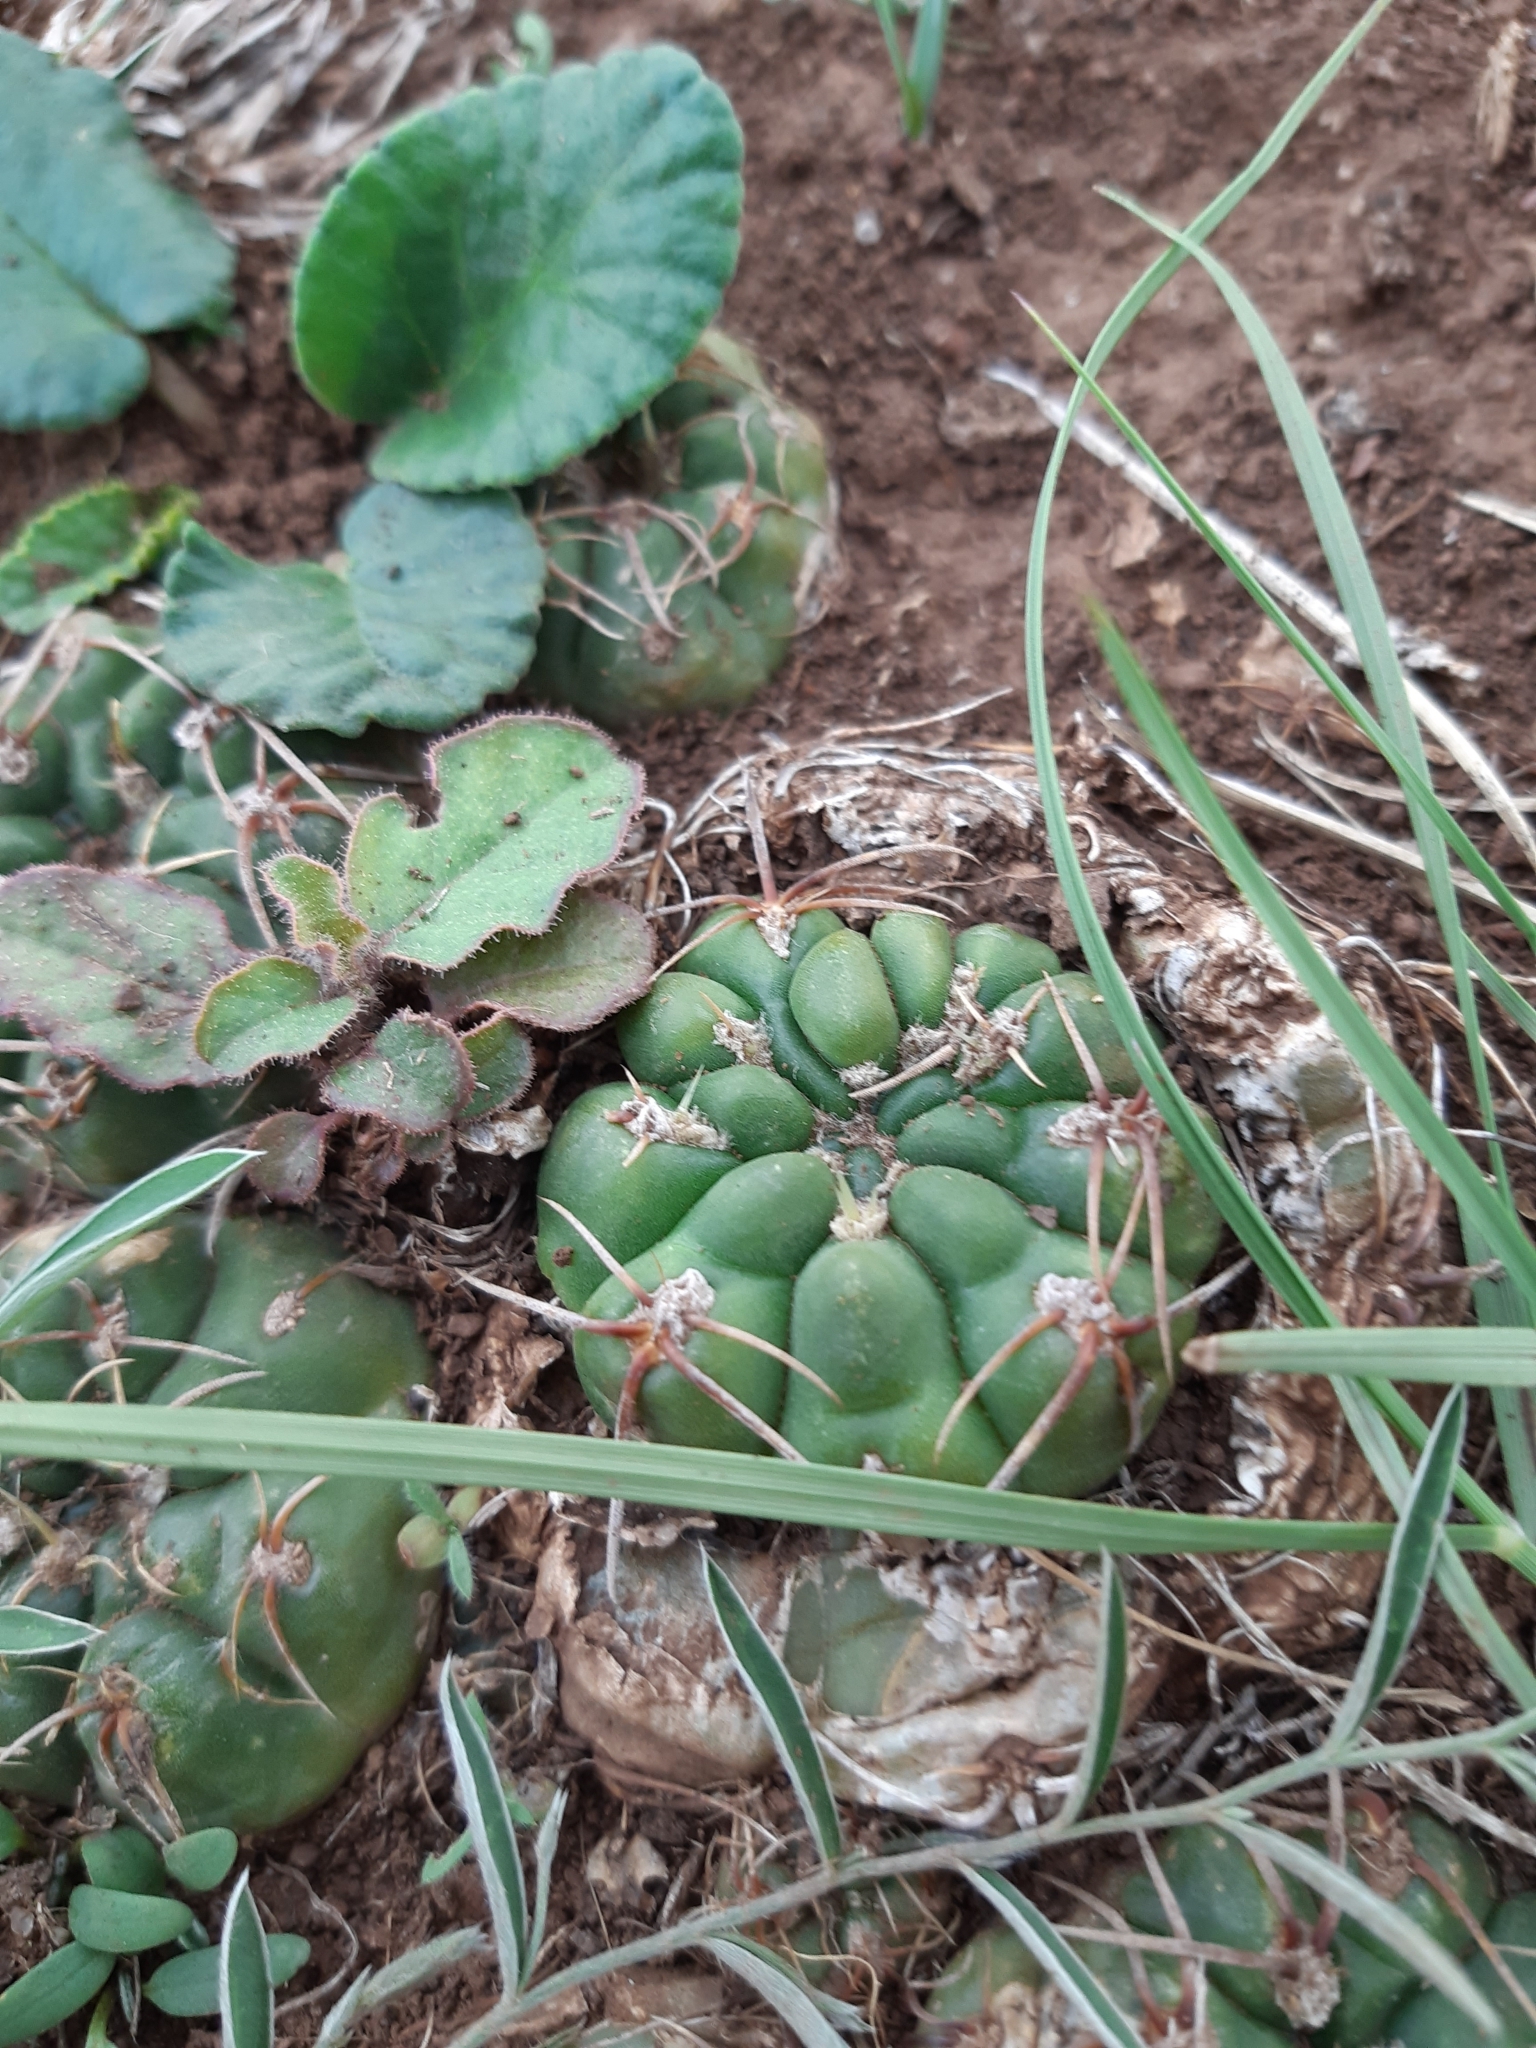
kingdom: Plantae
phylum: Tracheophyta
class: Magnoliopsida
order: Caryophyllales
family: Cactaceae
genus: Gymnocalycium
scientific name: Gymnocalycium hossei
